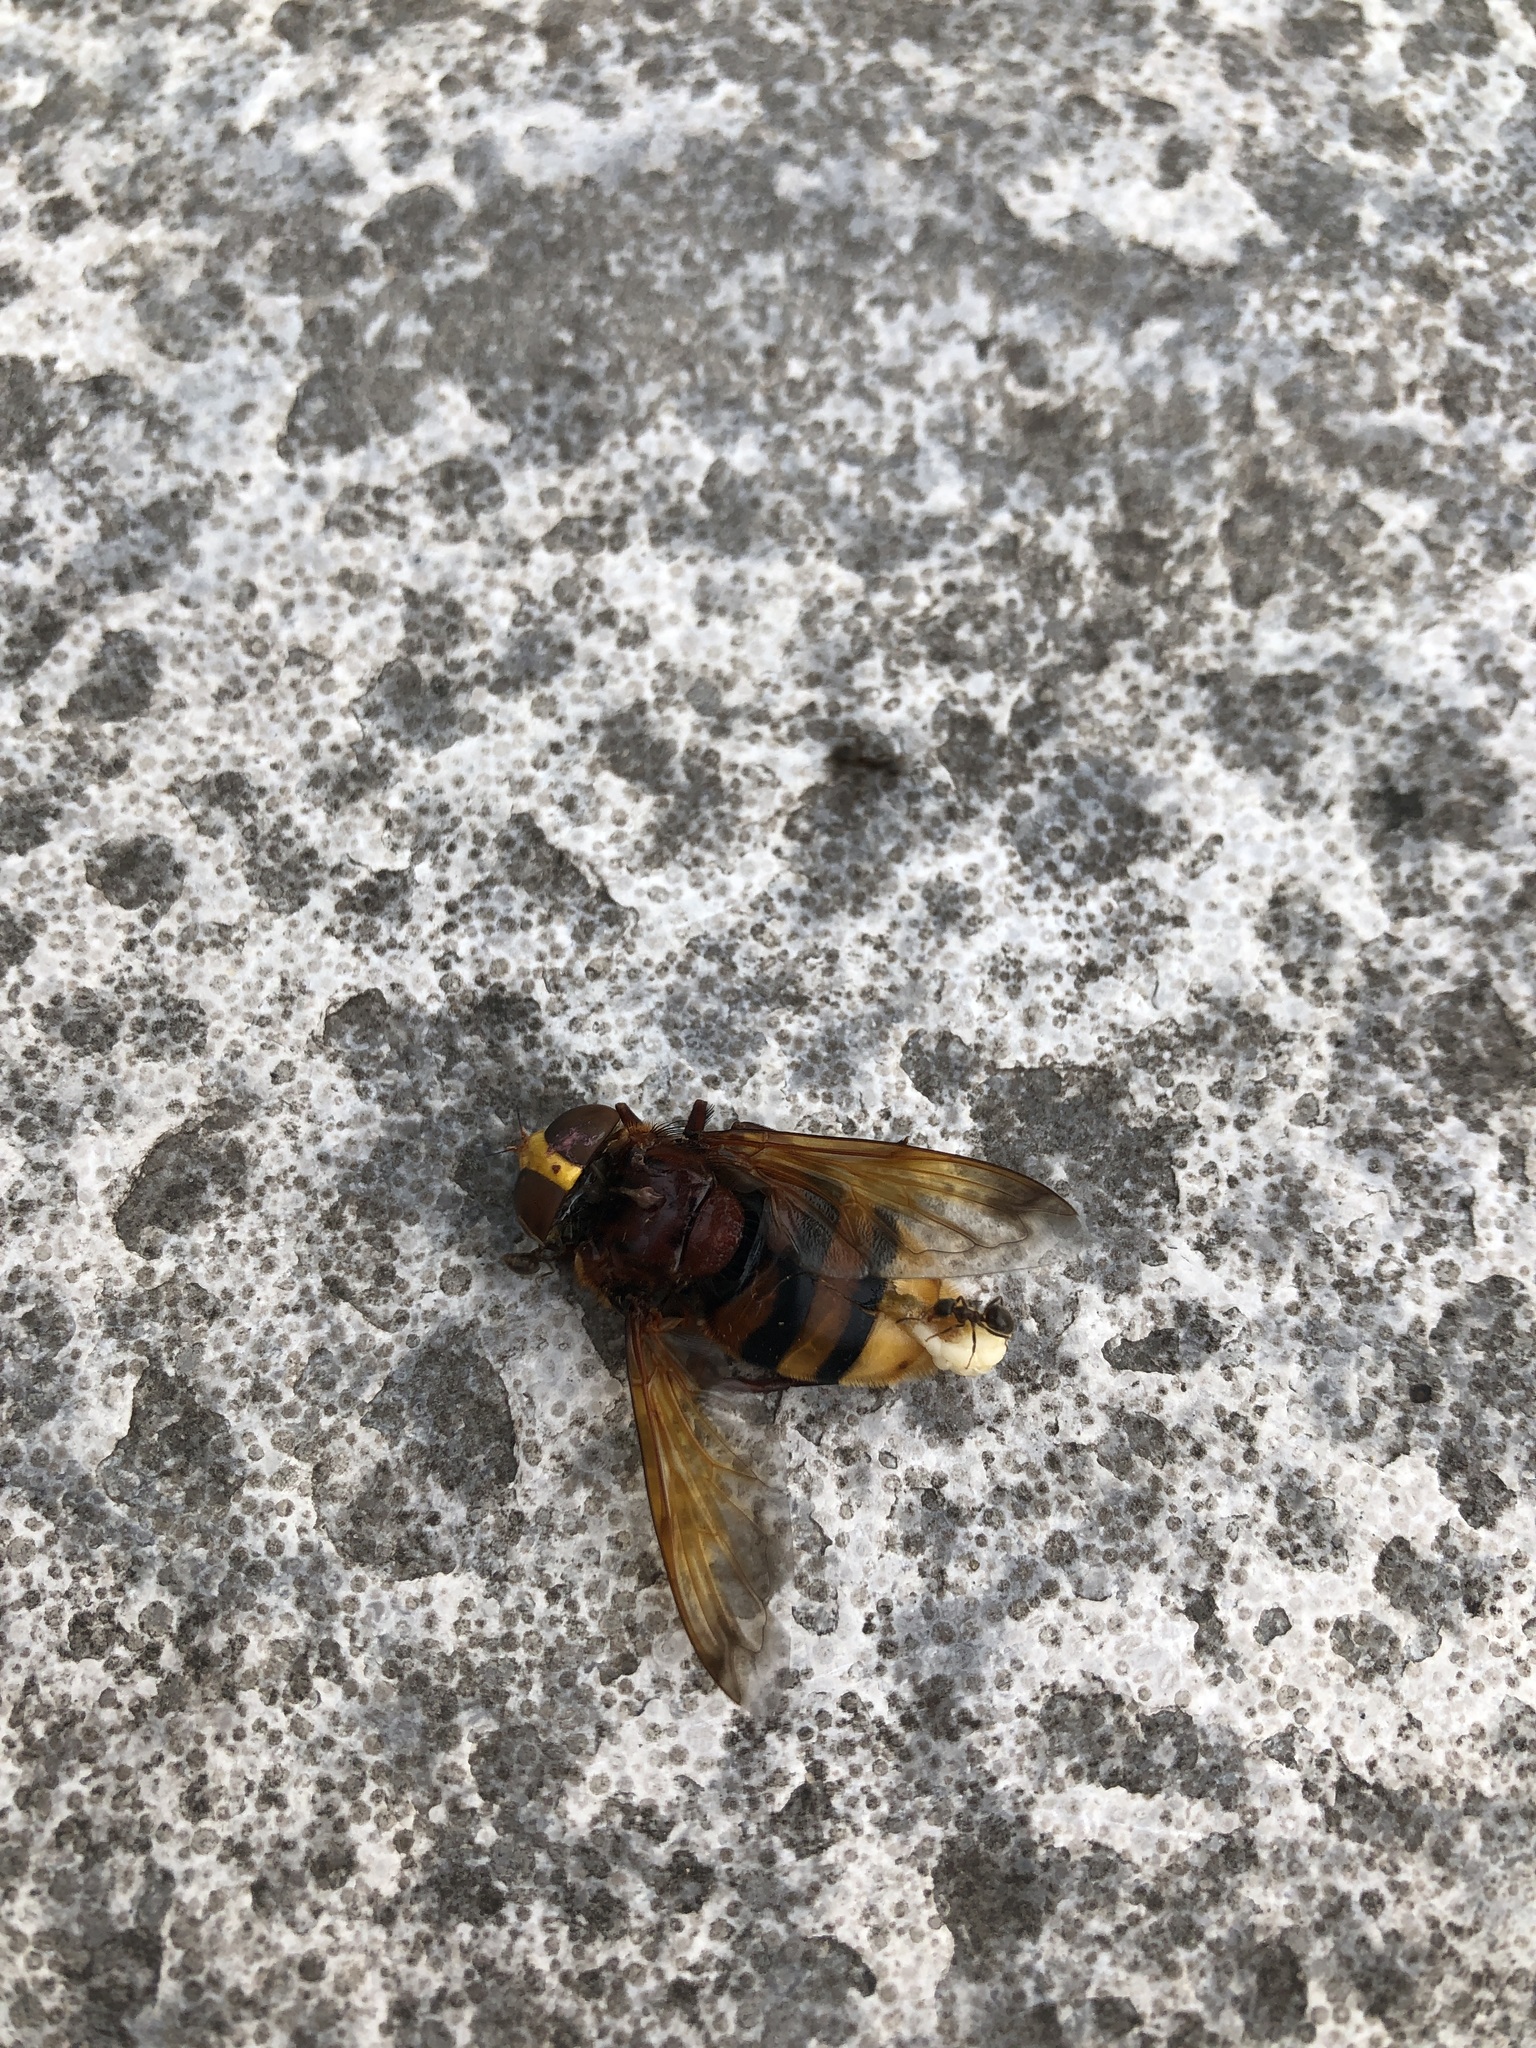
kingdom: Animalia
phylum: Arthropoda
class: Insecta
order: Diptera
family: Syrphidae
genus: Volucella
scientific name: Volucella zonaria
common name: Hornet hoverfly
